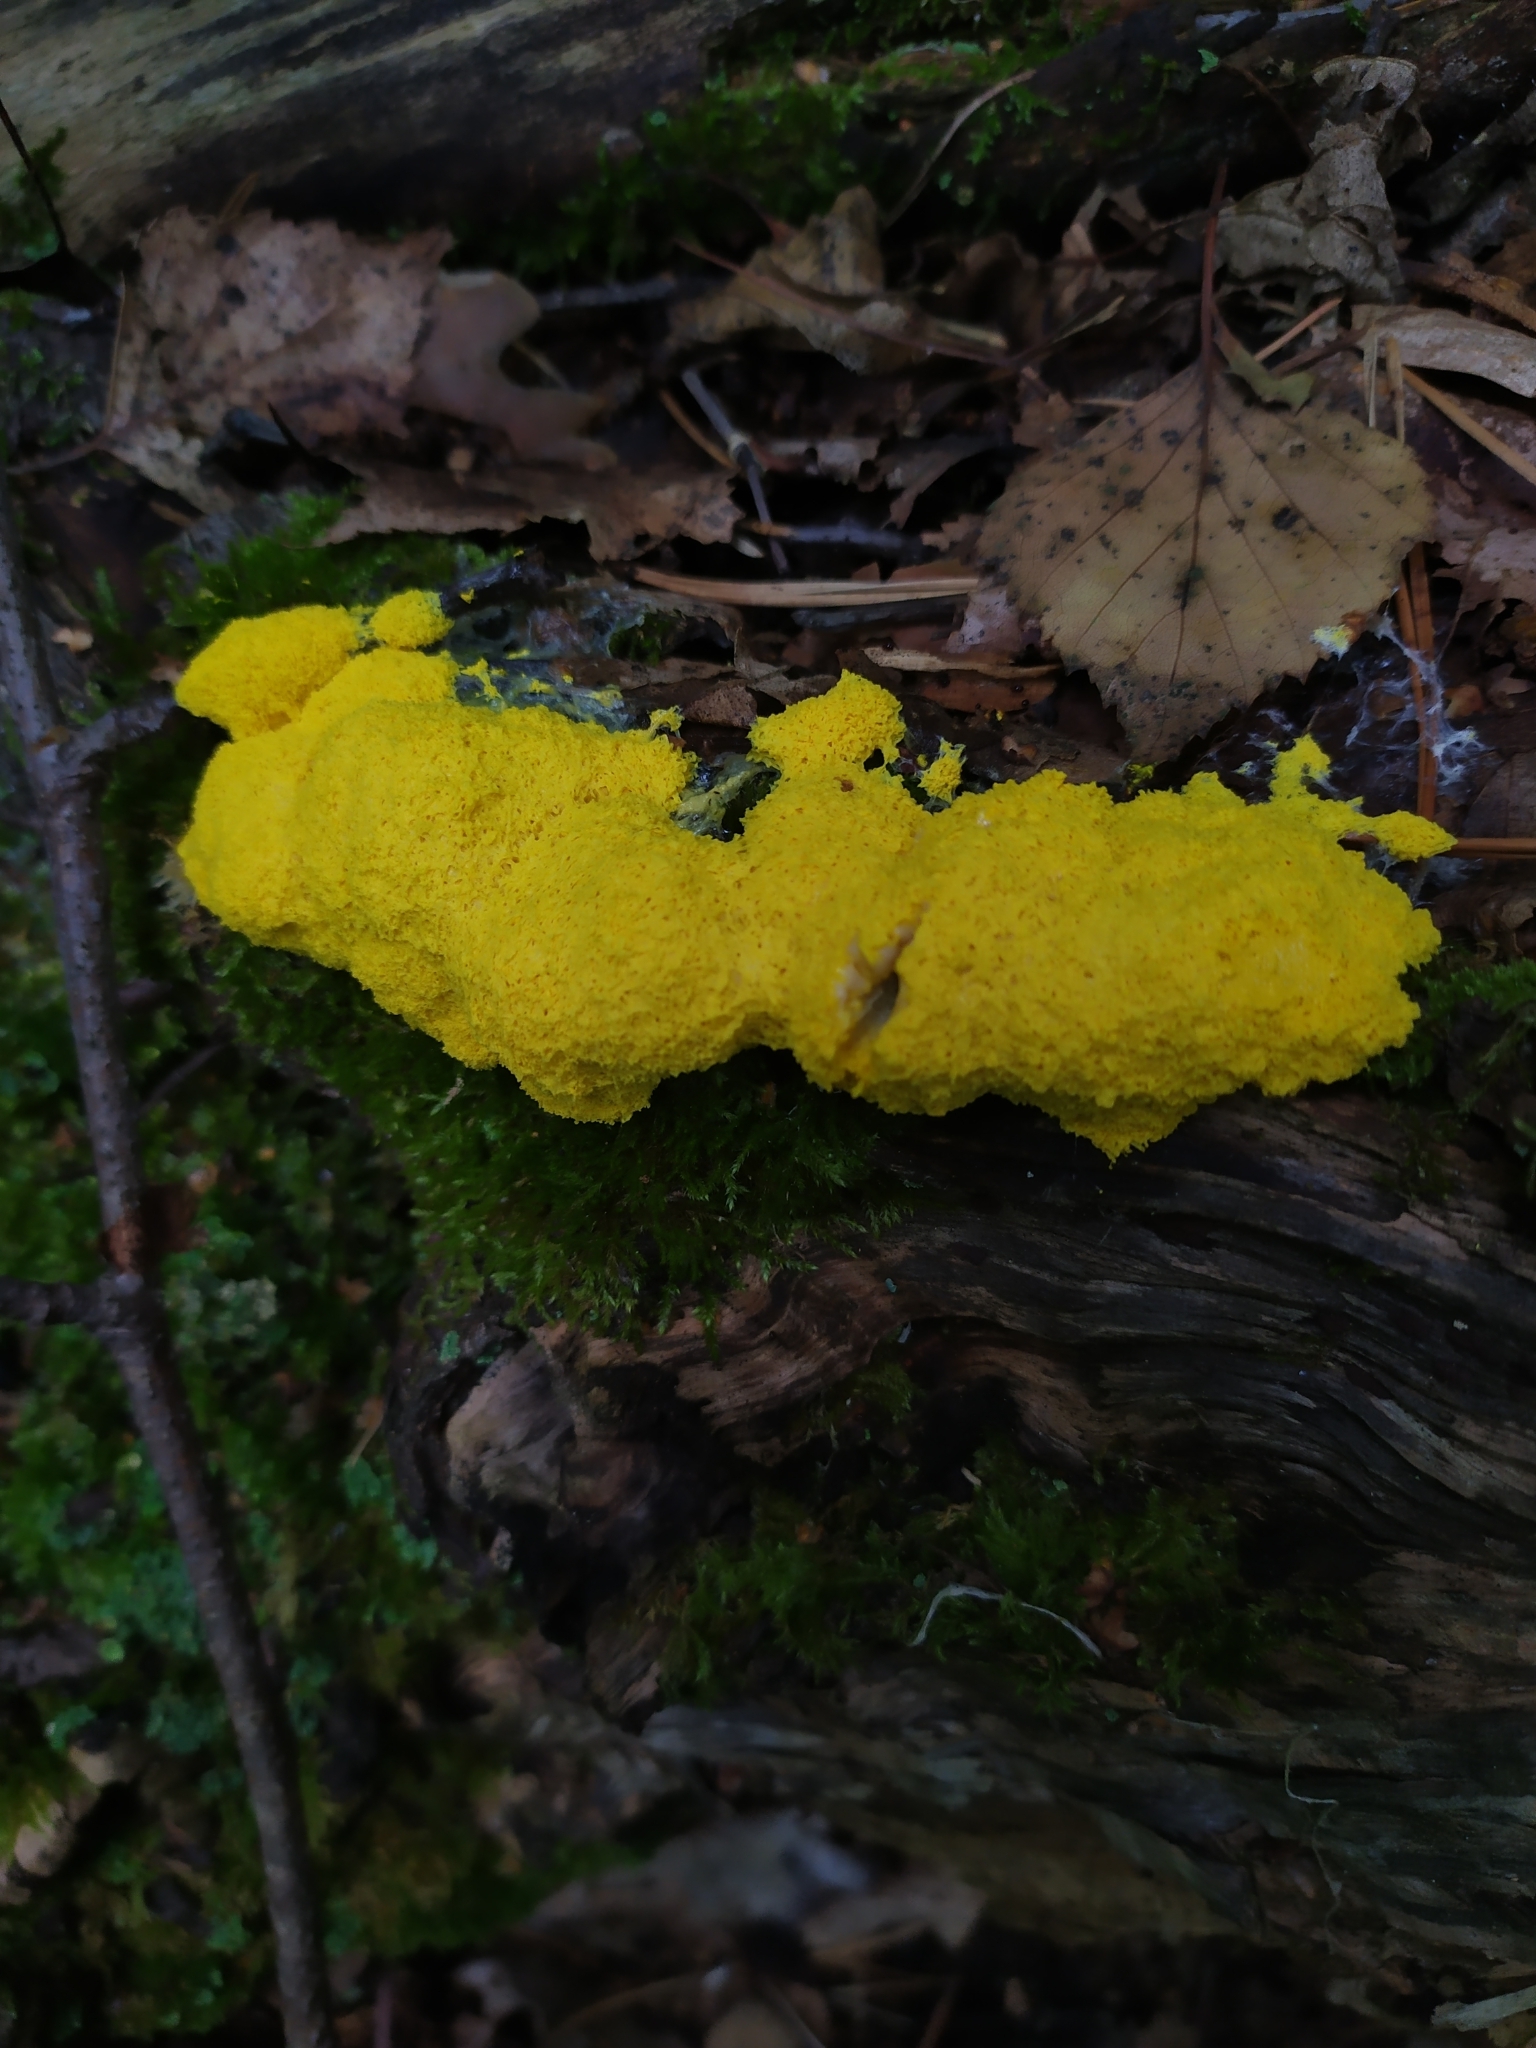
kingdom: Protozoa
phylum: Mycetozoa
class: Myxomycetes
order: Physarales
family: Physaraceae
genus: Fuligo
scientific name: Fuligo septica
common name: Dog vomit slime mold
